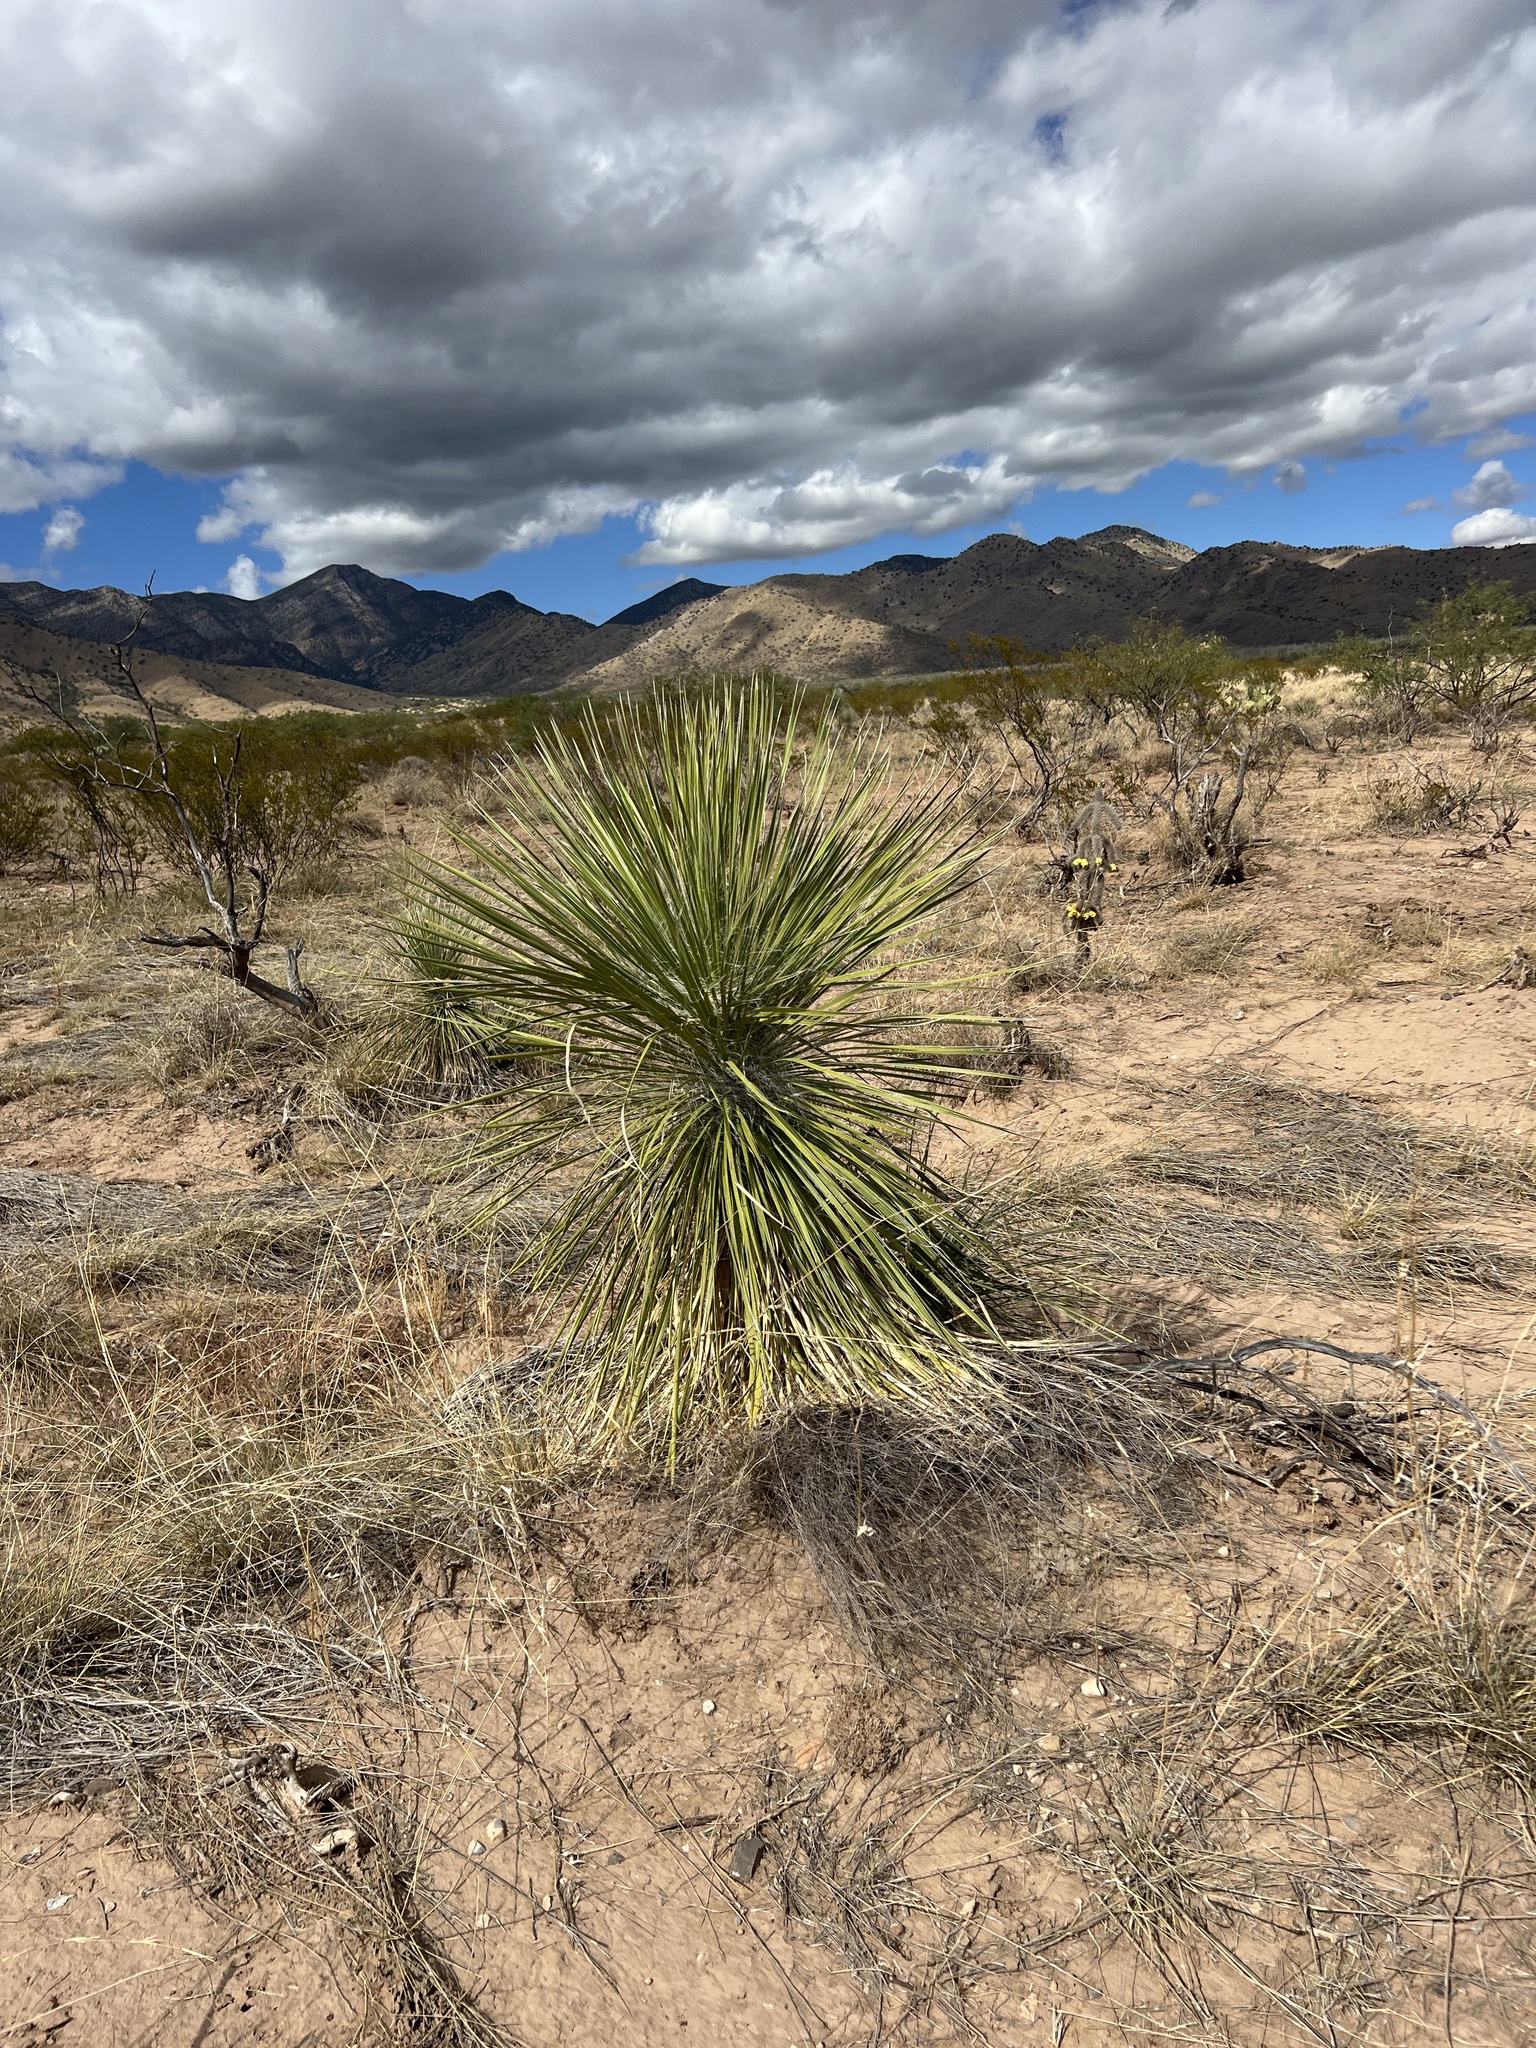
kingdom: Plantae
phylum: Tracheophyta
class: Liliopsida
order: Asparagales
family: Asparagaceae
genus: Yucca
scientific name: Yucca elata
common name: Palmella
